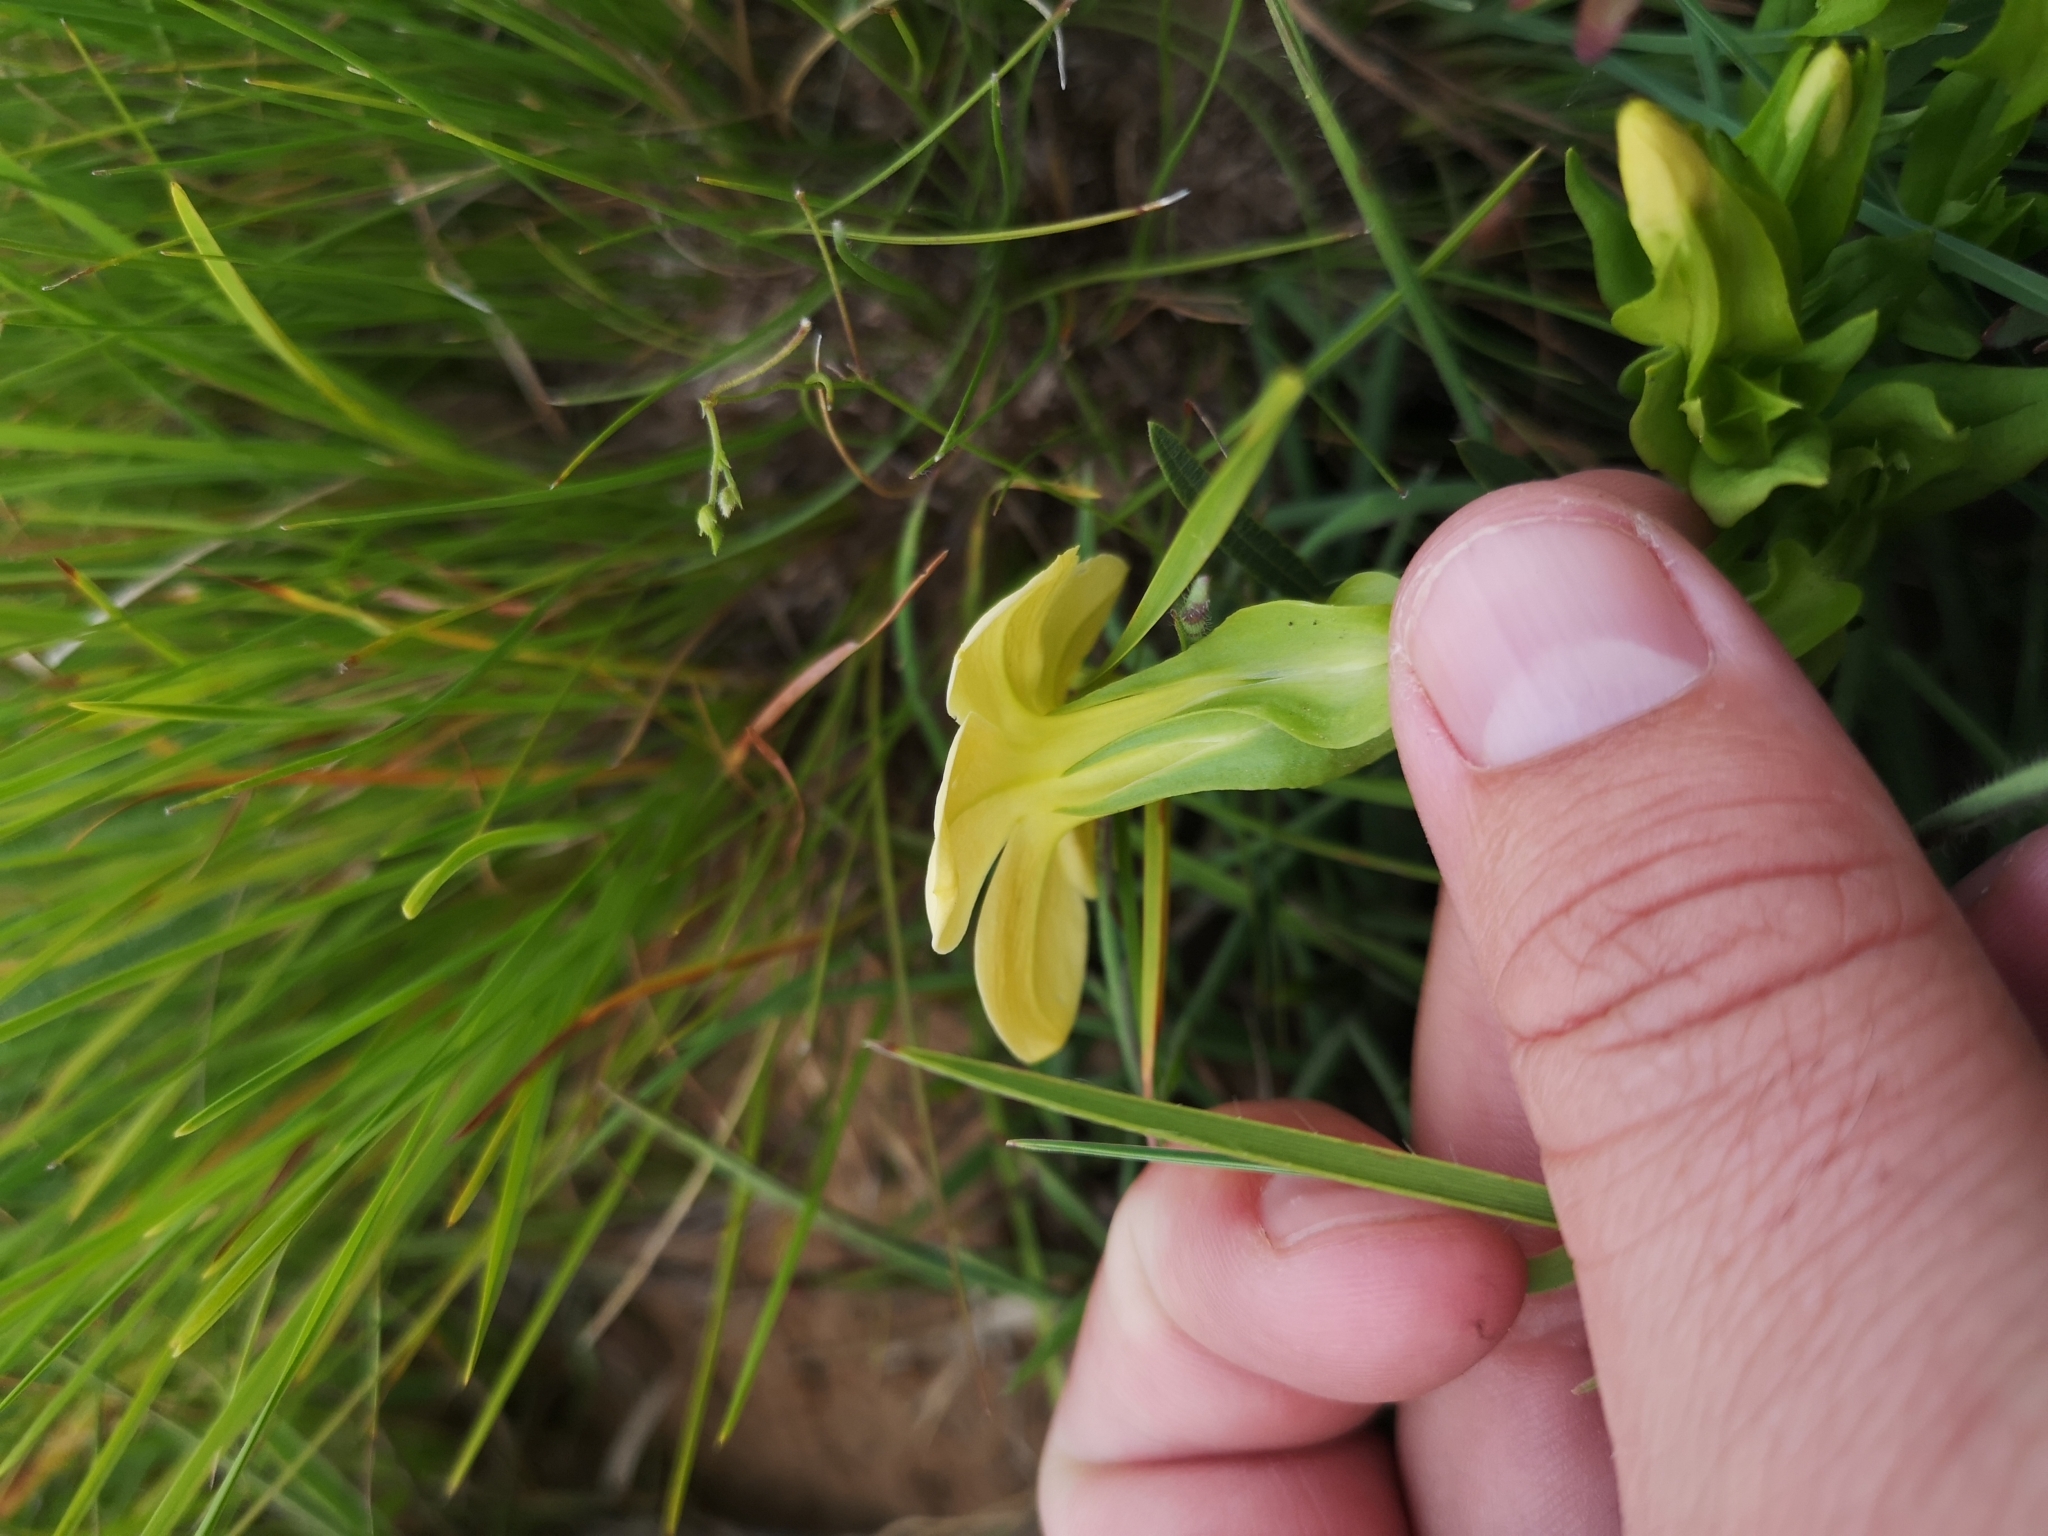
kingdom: Plantae
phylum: Tracheophyta
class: Magnoliopsida
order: Gentianales
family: Gentianaceae
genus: Exochaenium
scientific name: Exochaenium grande
